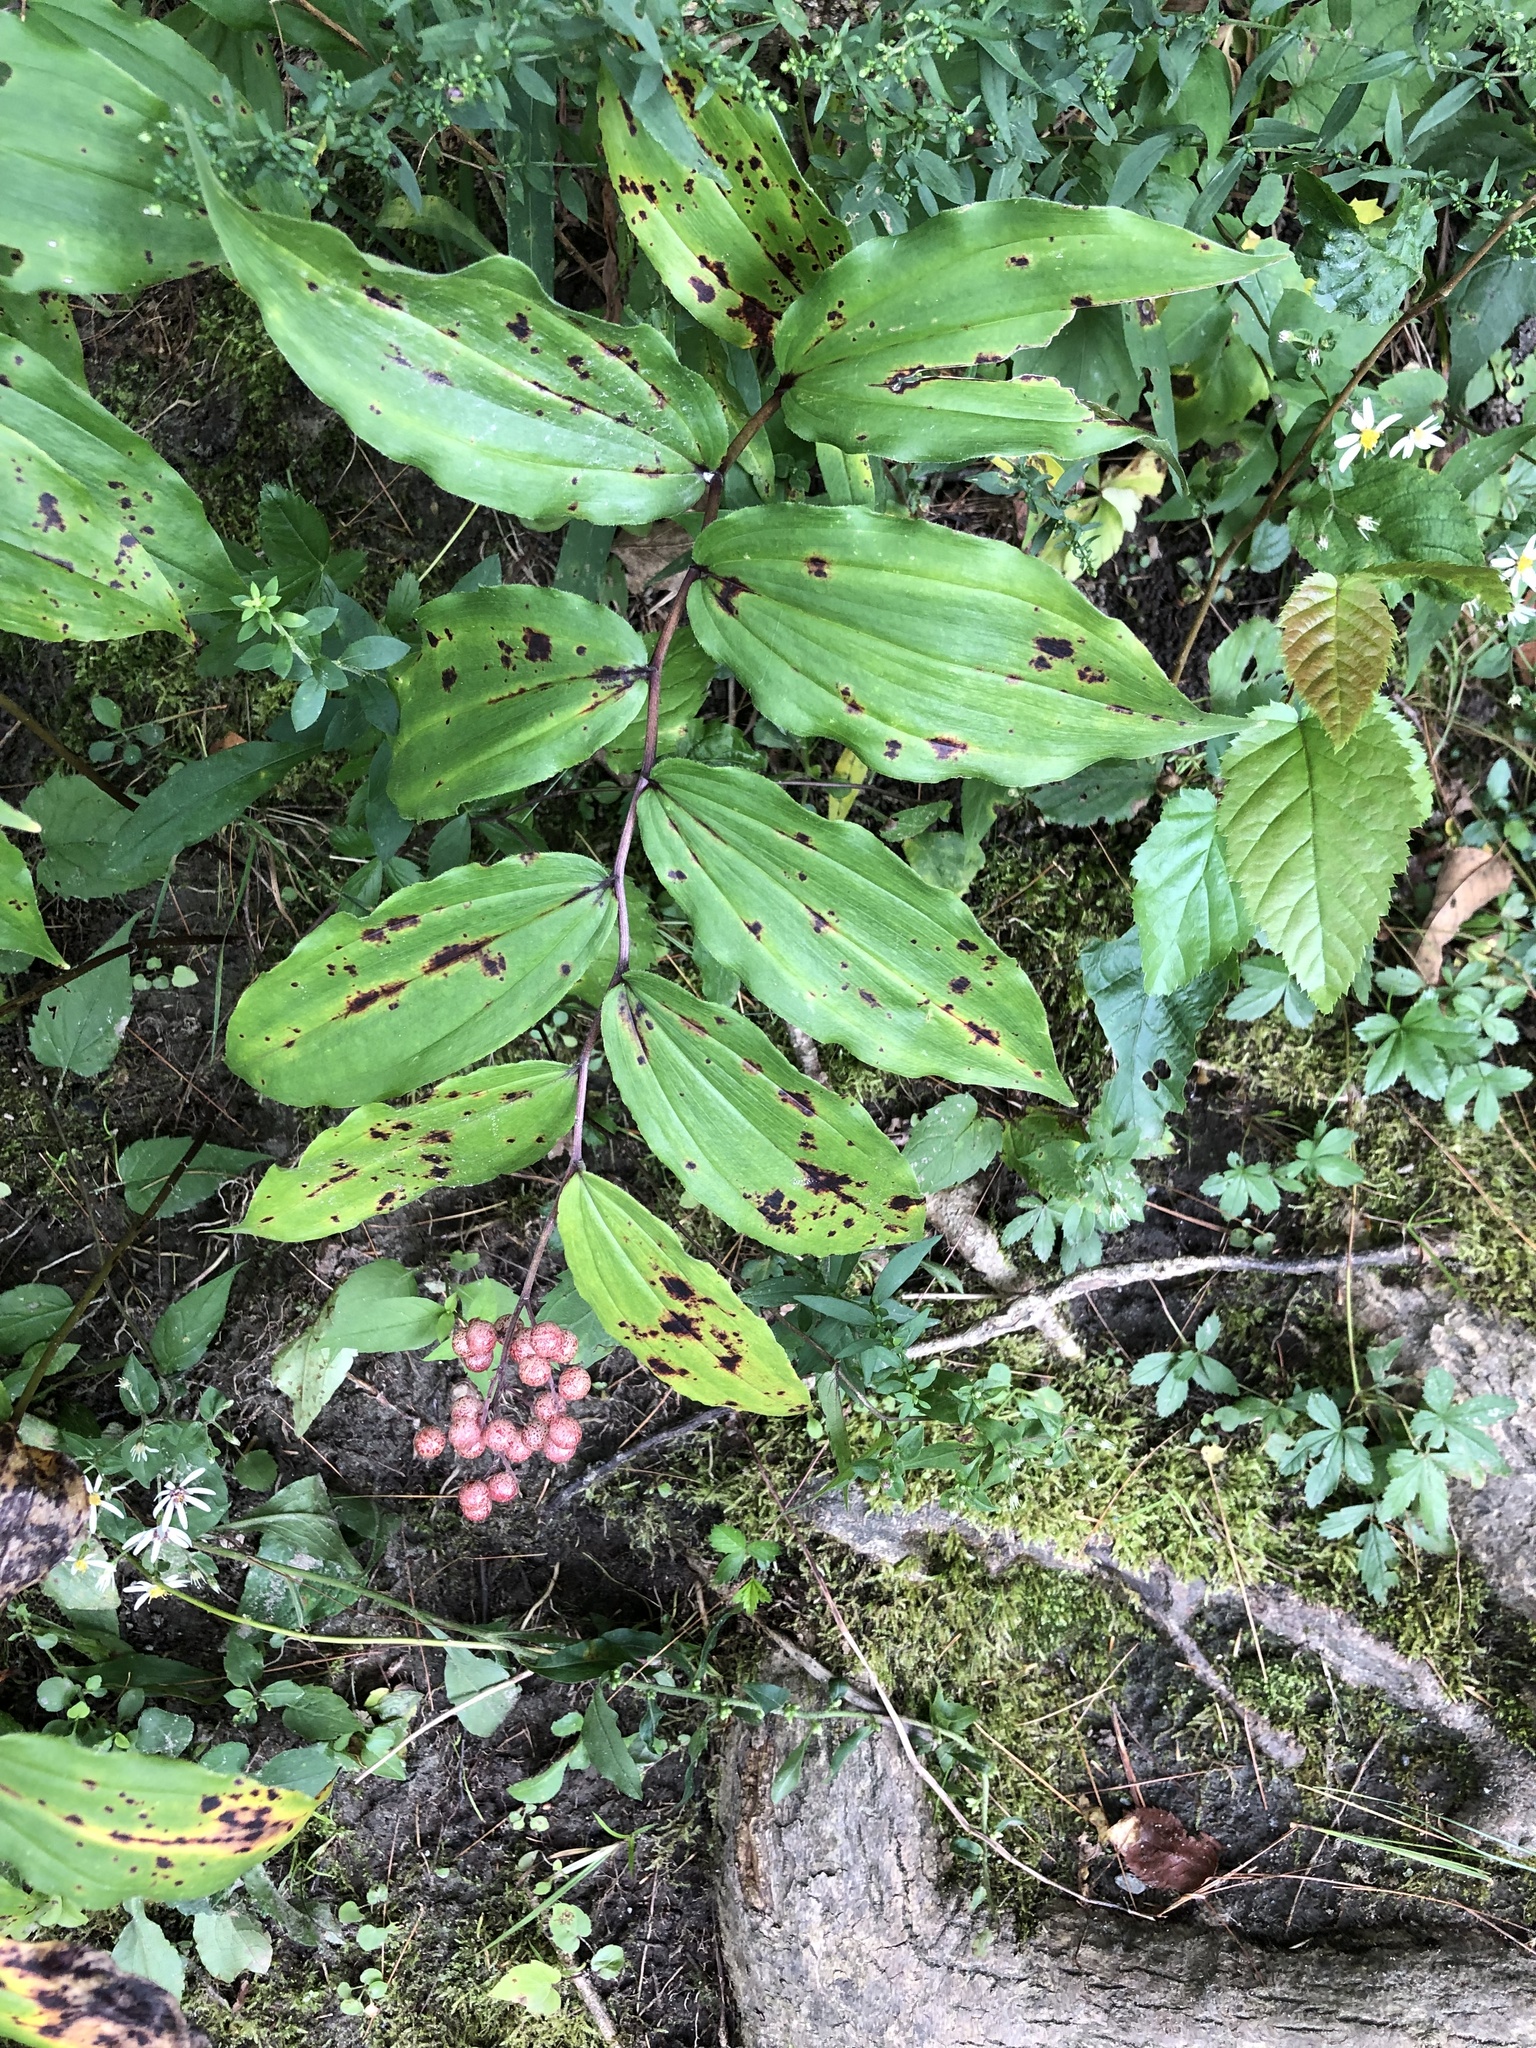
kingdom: Plantae
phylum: Tracheophyta
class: Liliopsida
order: Asparagales
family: Asparagaceae
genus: Maianthemum
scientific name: Maianthemum racemosum
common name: False spikenard
